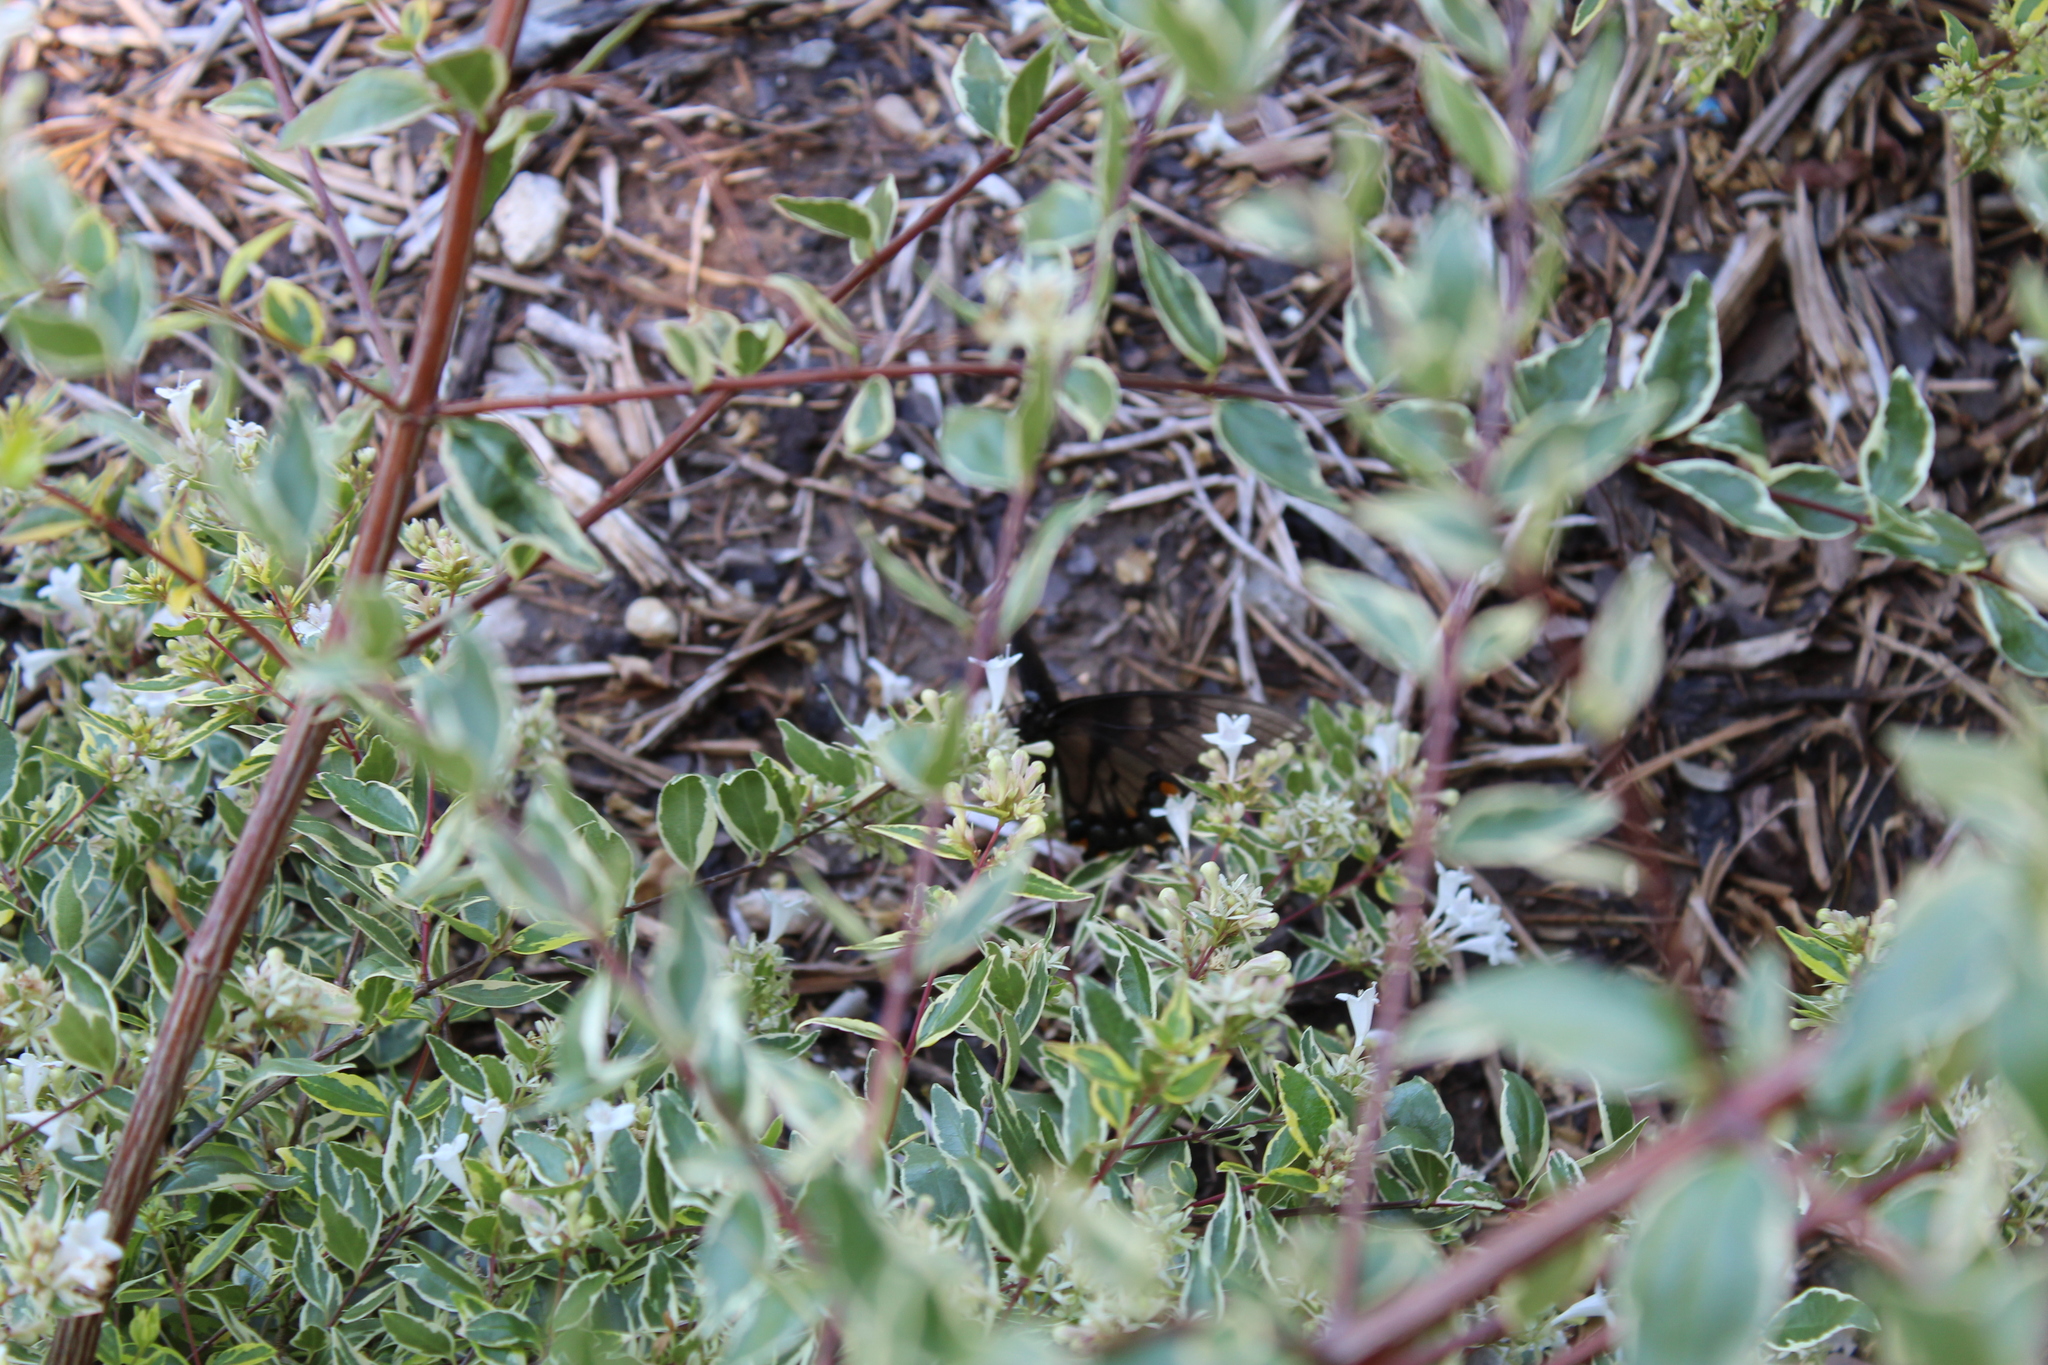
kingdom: Animalia
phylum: Arthropoda
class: Insecta
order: Lepidoptera
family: Papilionidae
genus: Papilio
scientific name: Papilio glaucus
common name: Tiger swallowtail
